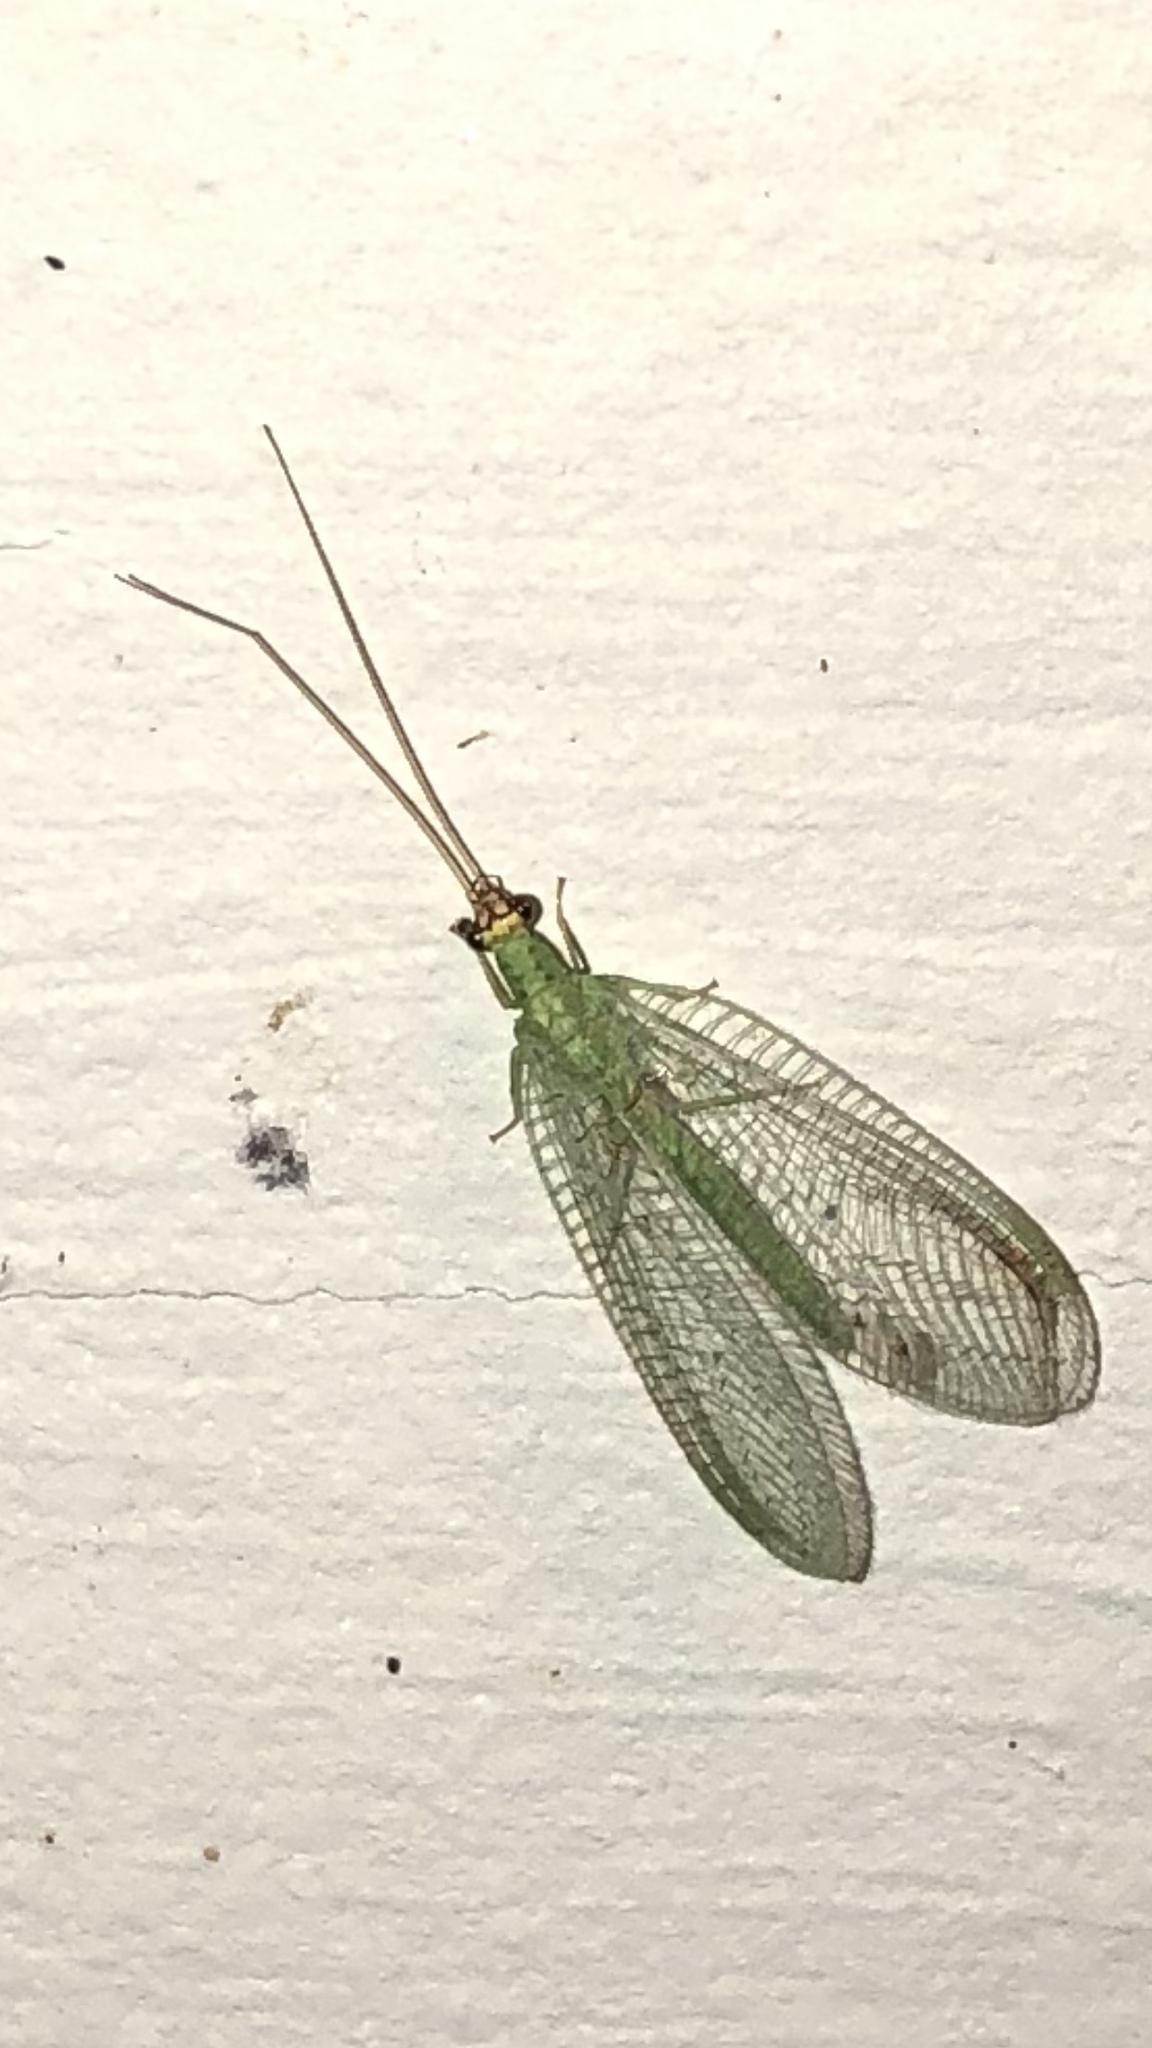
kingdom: Animalia
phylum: Arthropoda
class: Insecta
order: Neuroptera
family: Chrysopidae
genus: Chrysopa
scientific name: Chrysopa oculata
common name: Golden-eyed lacewing
